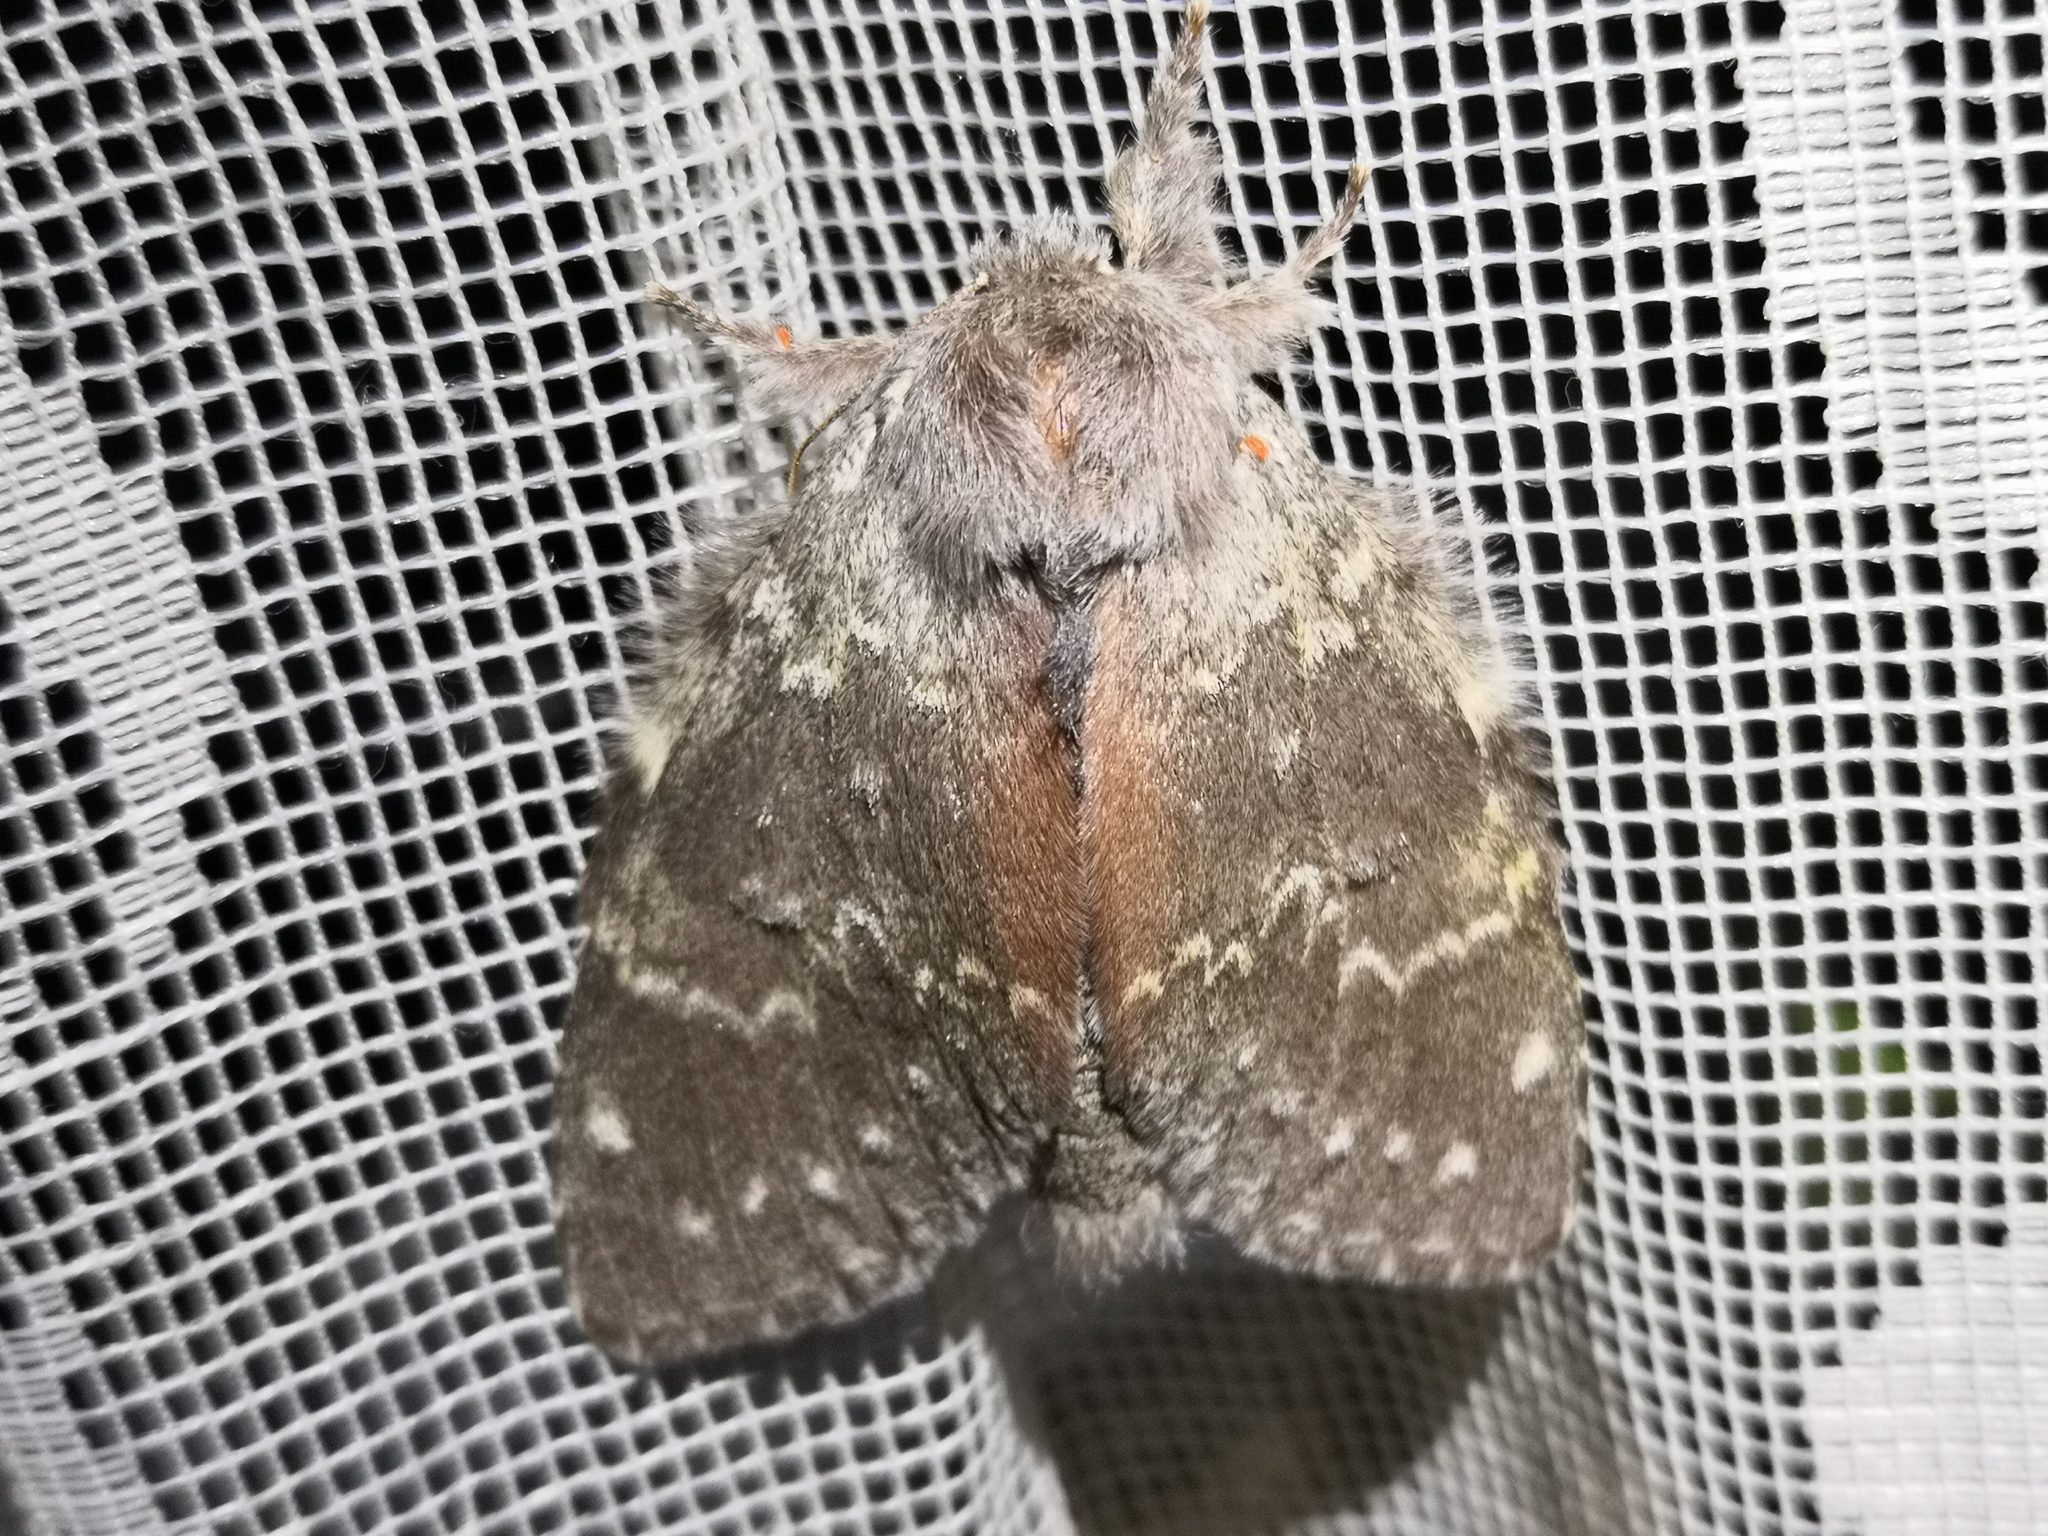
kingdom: Animalia
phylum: Arthropoda
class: Insecta
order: Lepidoptera
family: Notodontidae
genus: Stauropus
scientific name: Stauropus fagi
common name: Lobster moth
